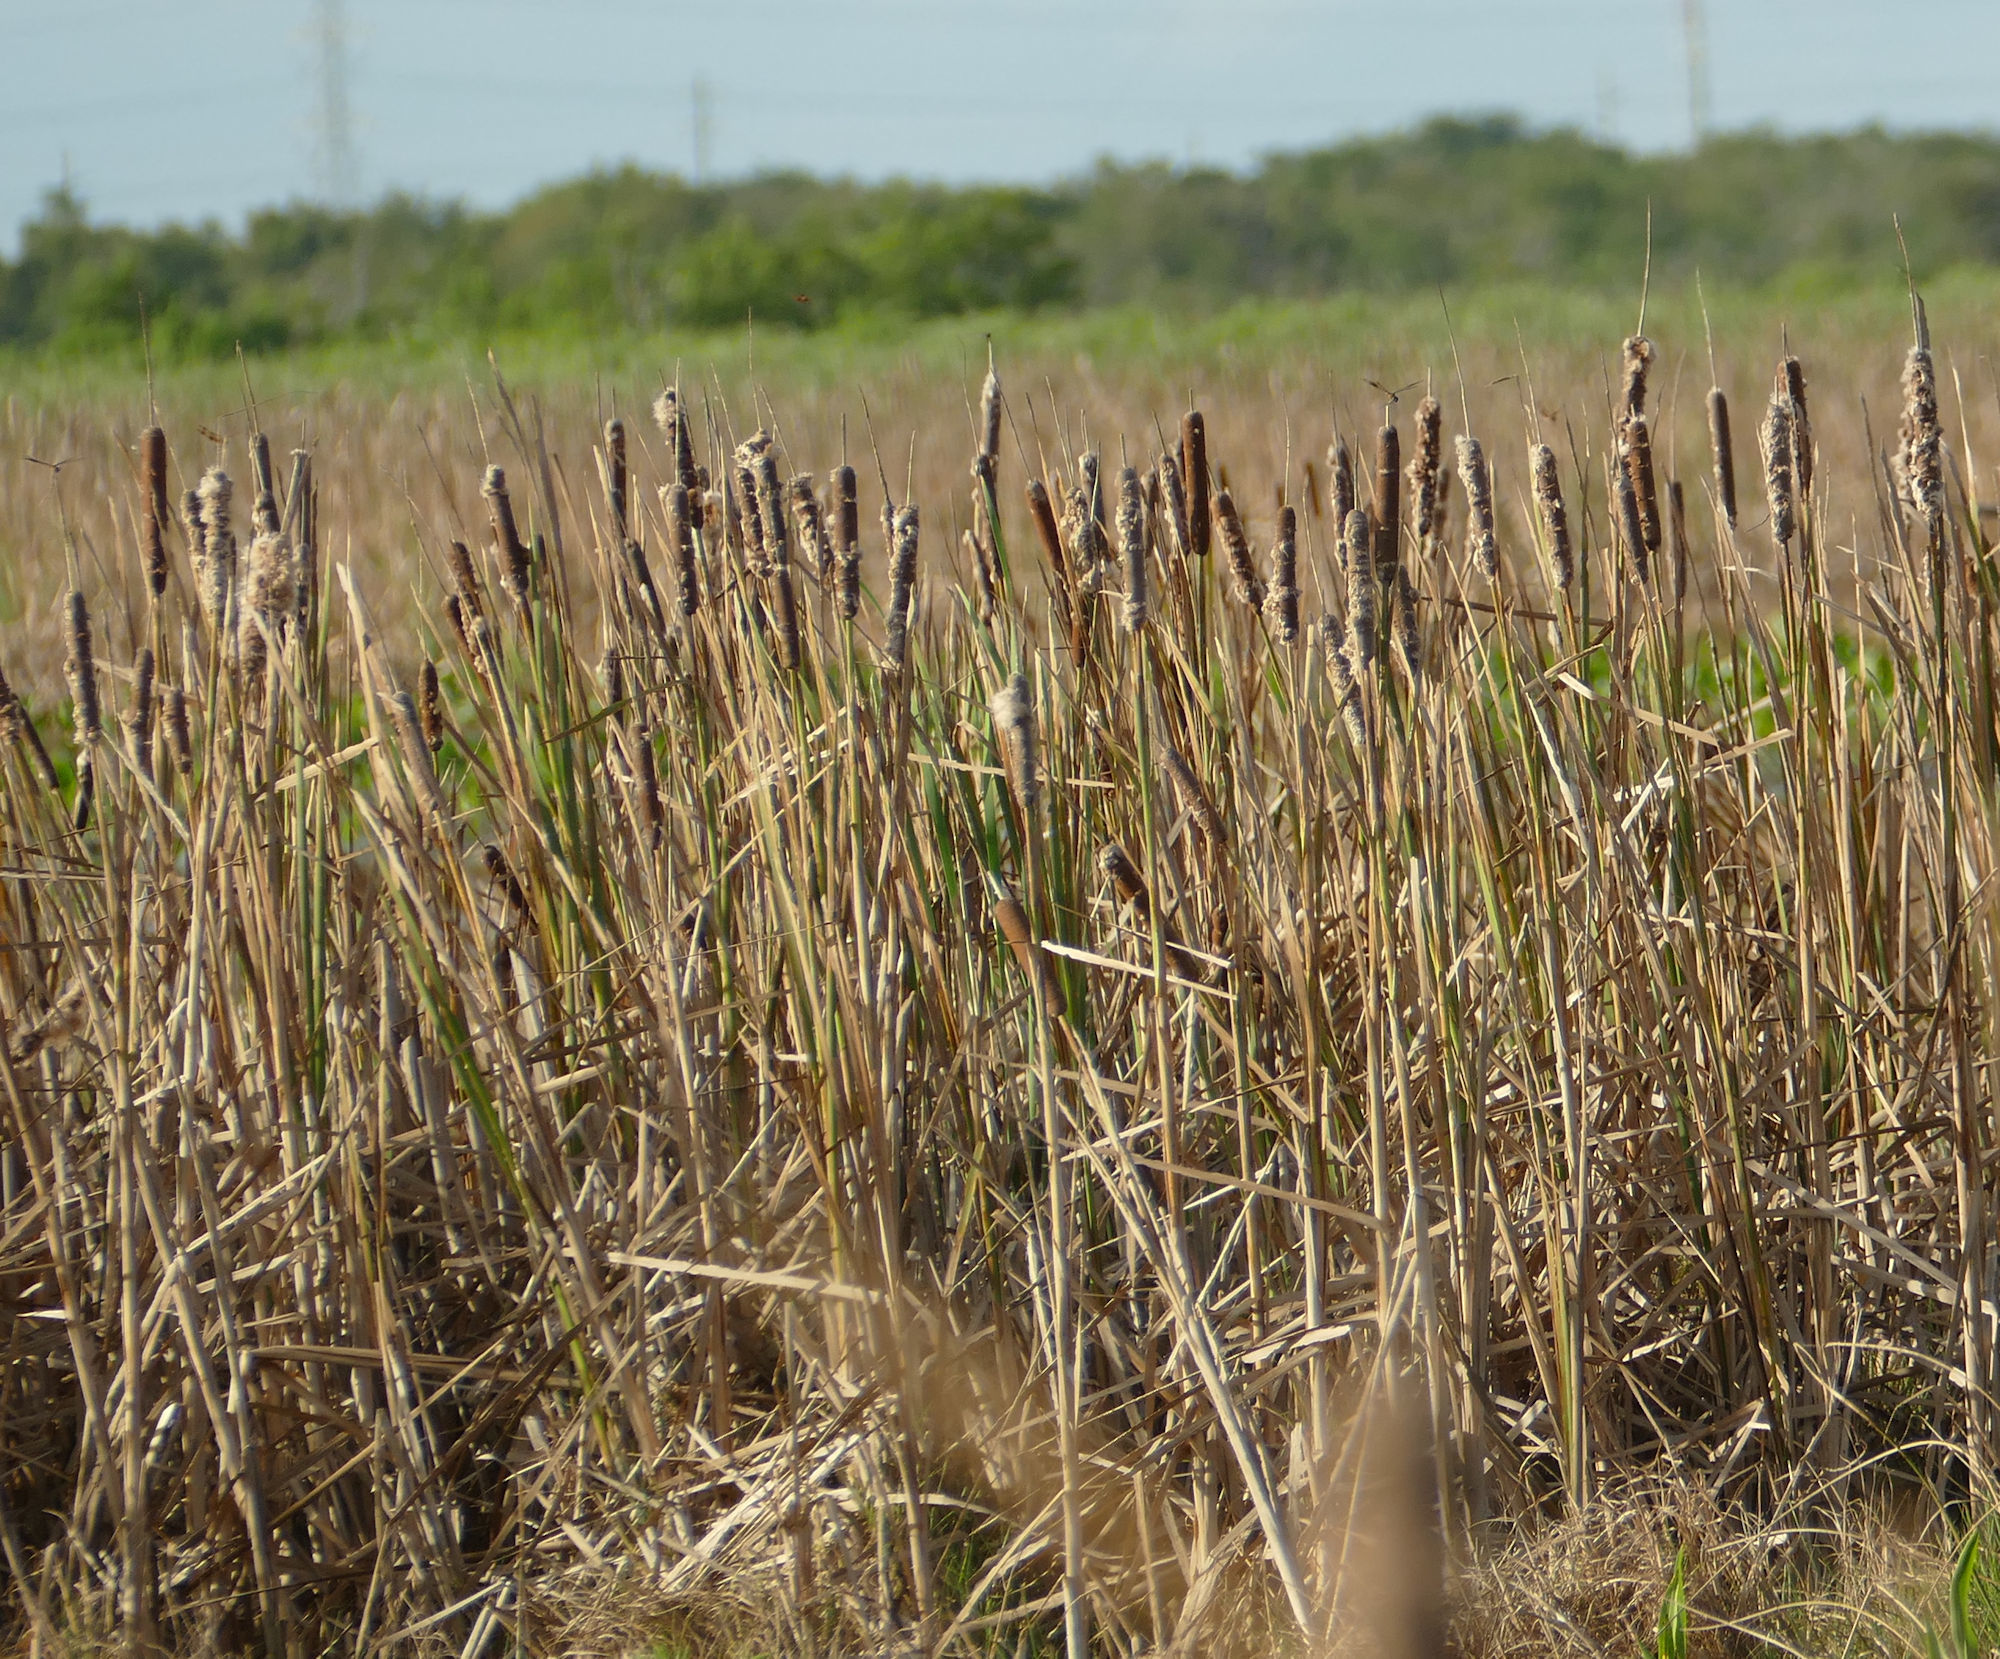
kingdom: Plantae
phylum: Tracheophyta
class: Liliopsida
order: Poales
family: Typhaceae
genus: Typha
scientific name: Typha angustifolia
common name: Lesser bulrush
